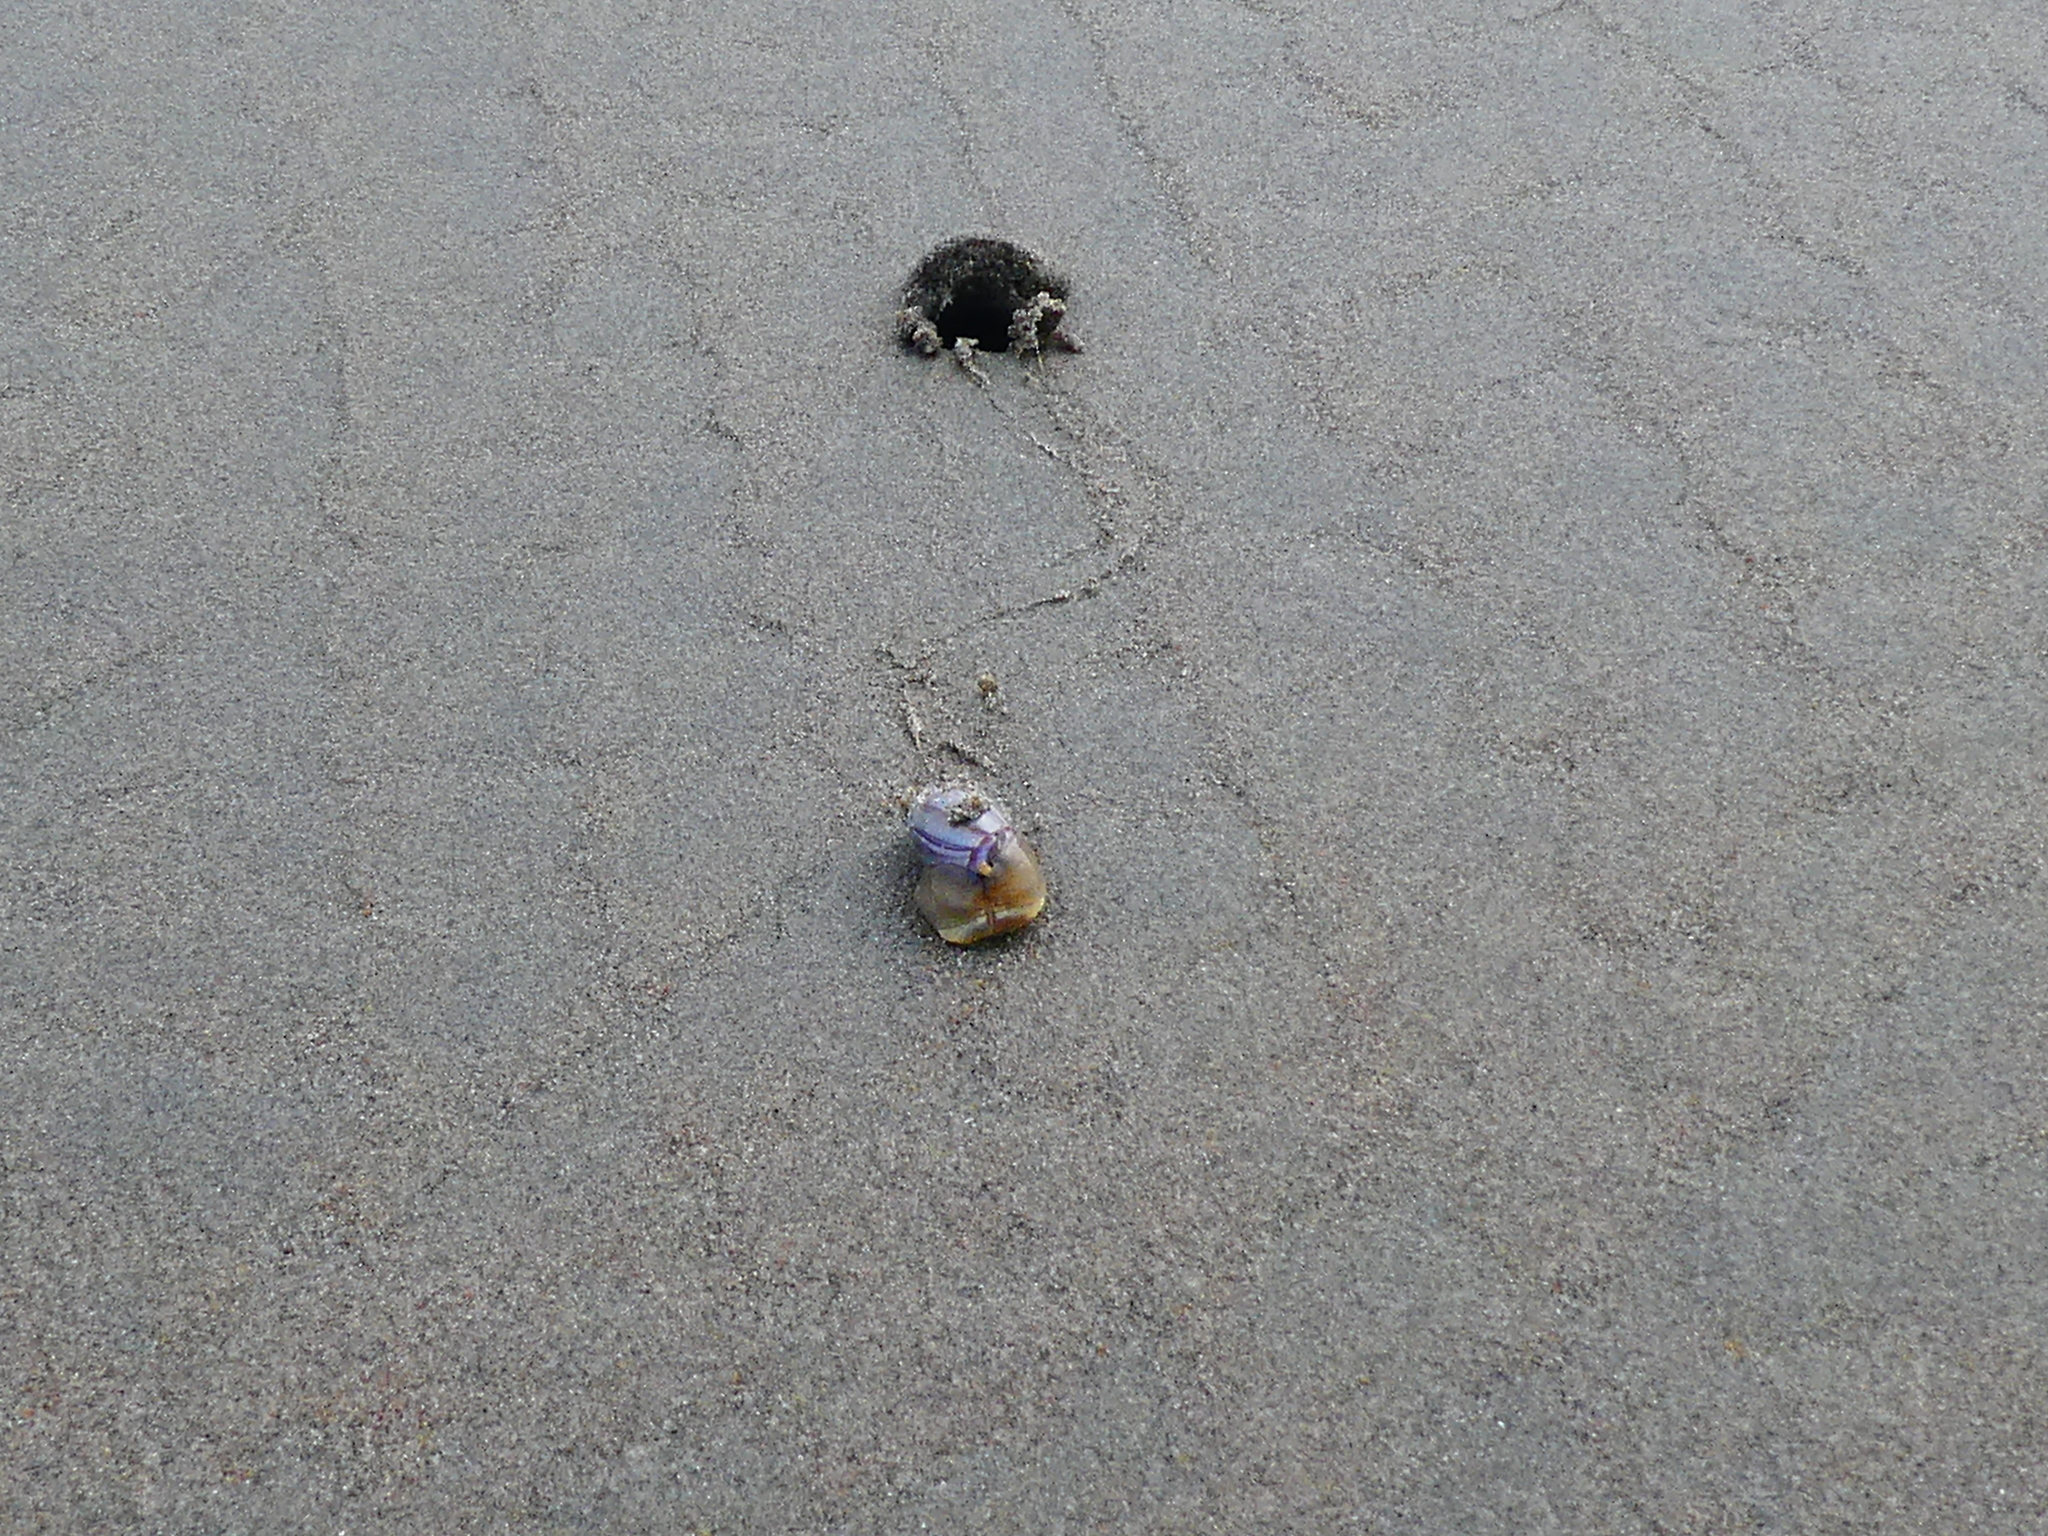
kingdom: Animalia
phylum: Mollusca
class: Gastropoda
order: Neogastropoda
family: Olividae
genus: Callianax
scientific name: Callianax biplicata
